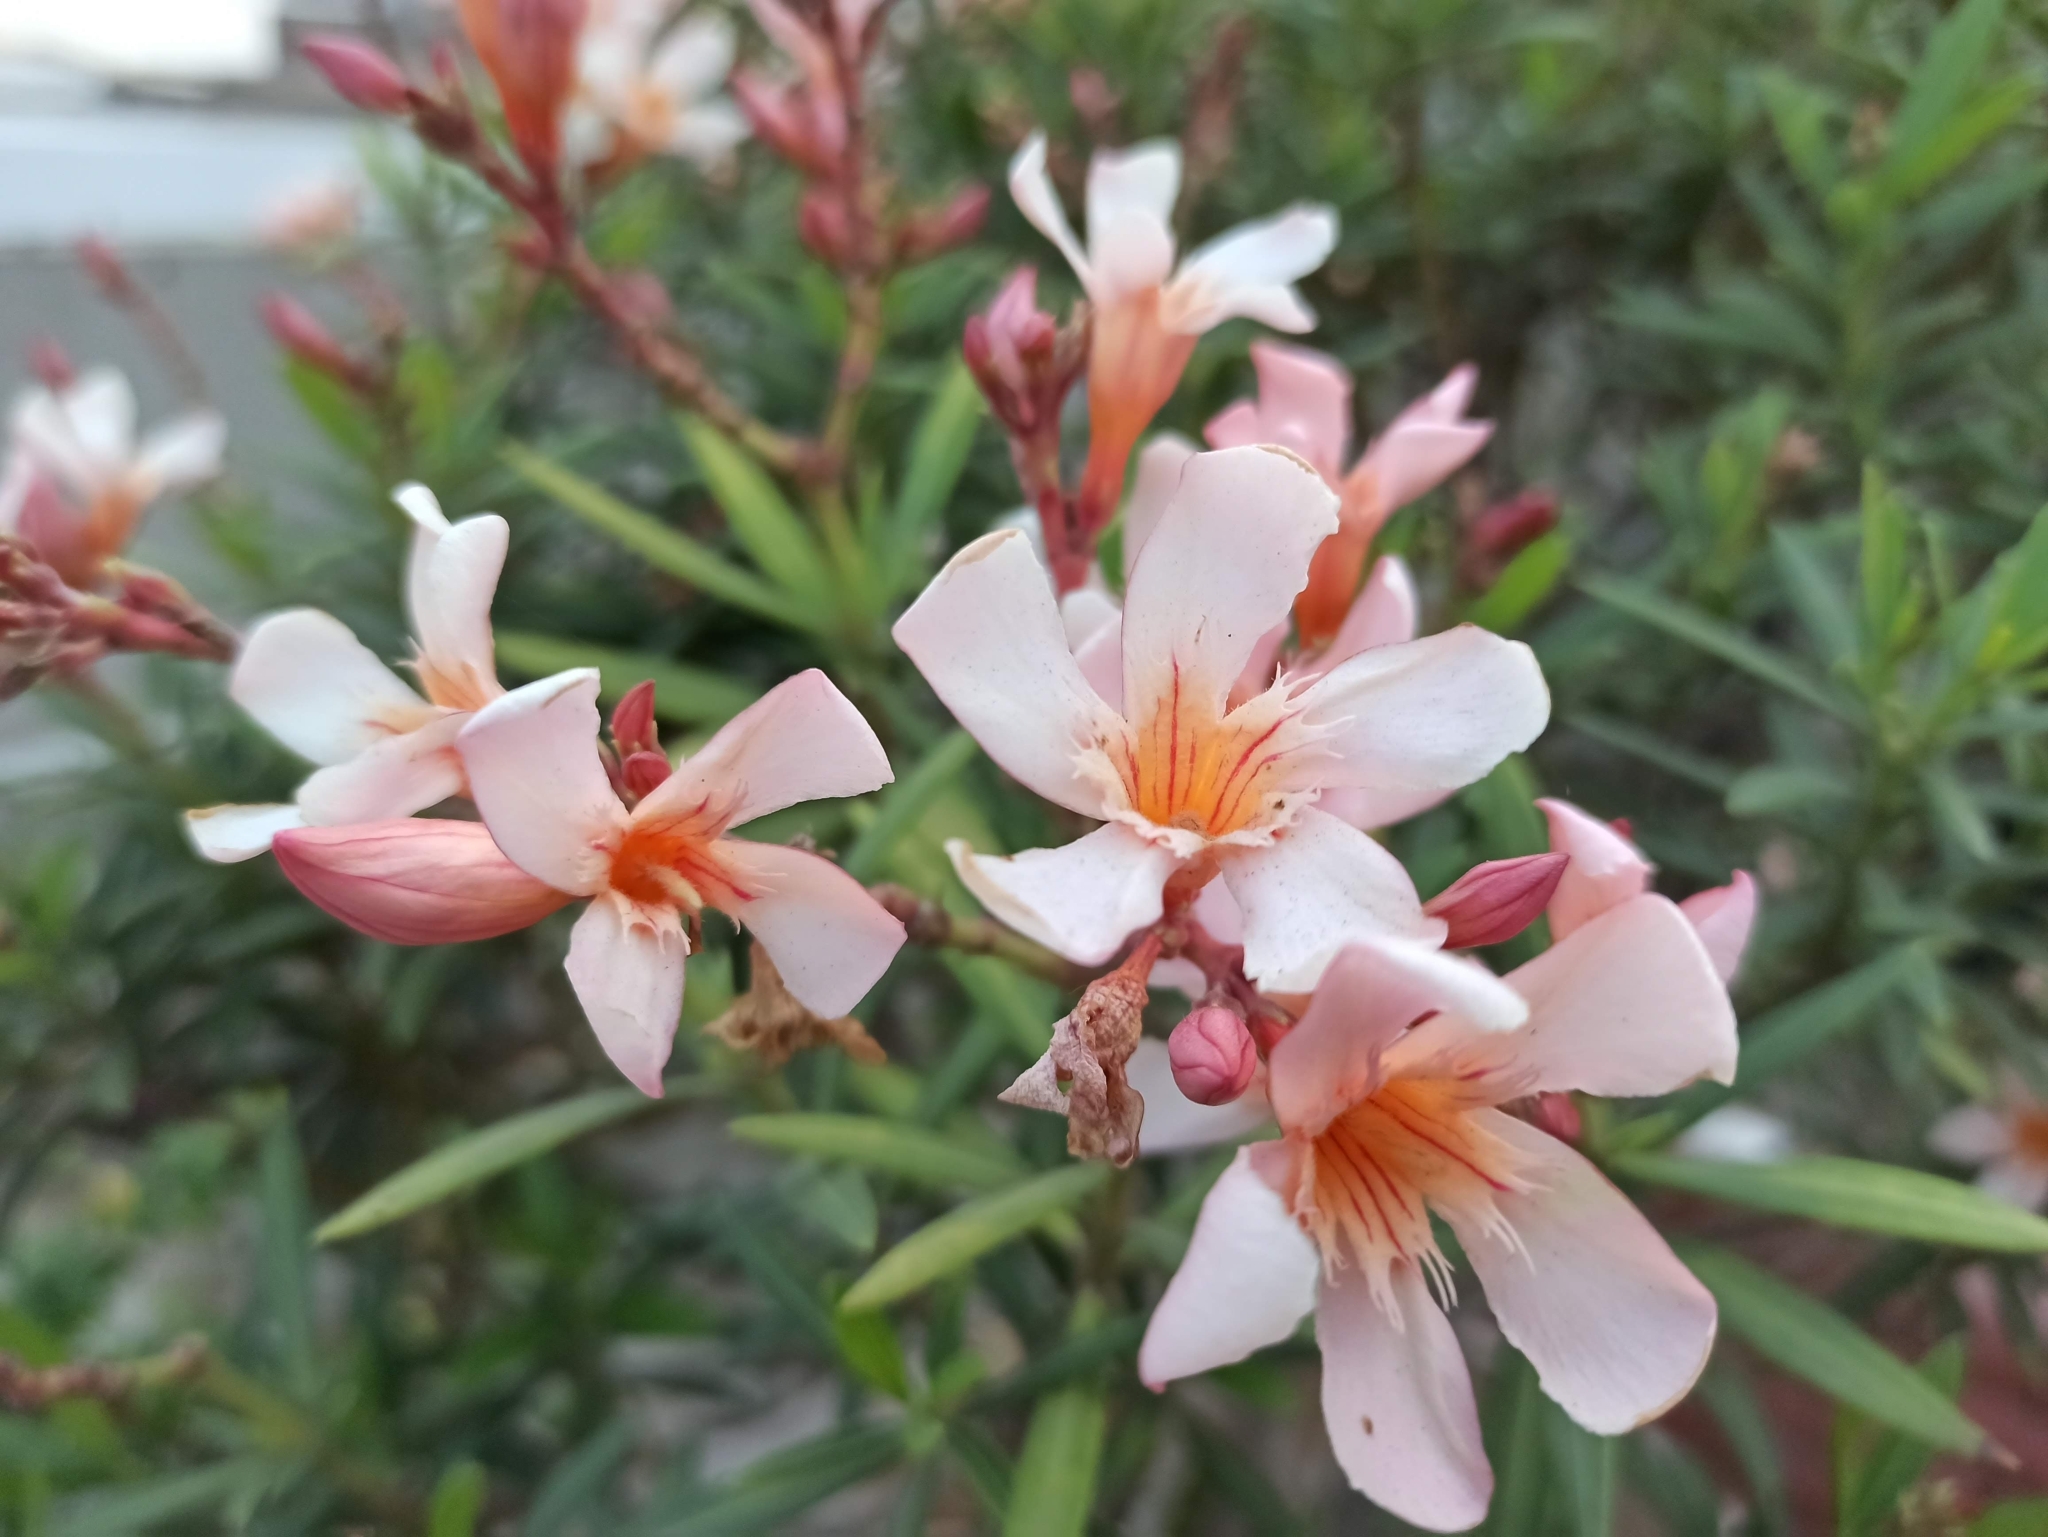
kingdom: Plantae
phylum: Tracheophyta
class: Magnoliopsida
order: Gentianales
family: Apocynaceae
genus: Nerium
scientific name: Nerium oleander
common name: Oleander
